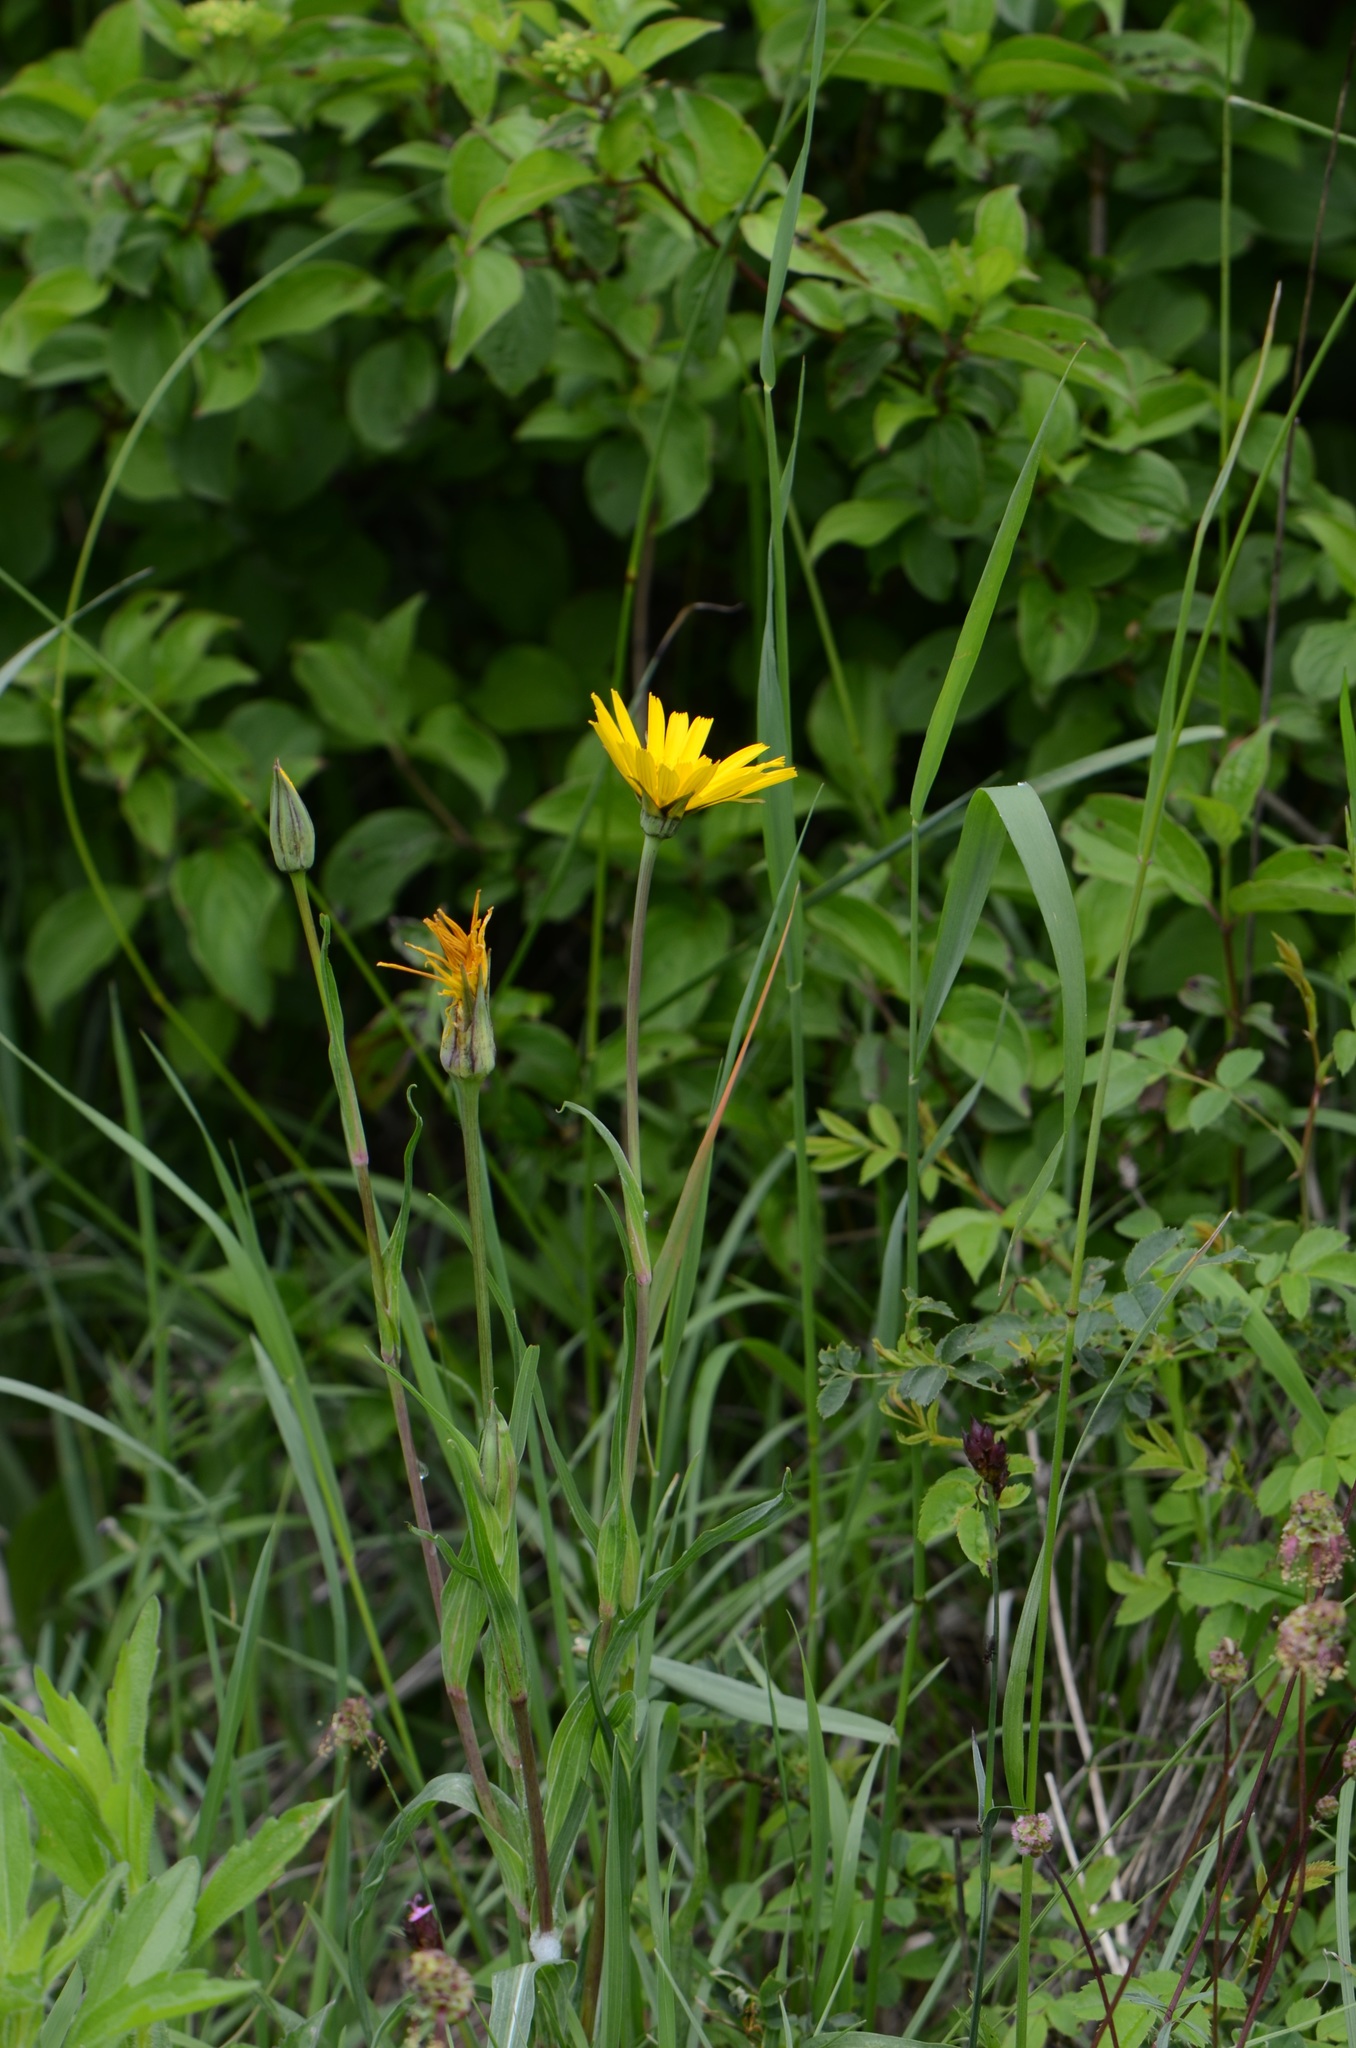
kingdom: Plantae
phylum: Tracheophyta
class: Magnoliopsida
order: Asterales
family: Asteraceae
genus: Tragopogon
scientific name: Tragopogon orientalis
